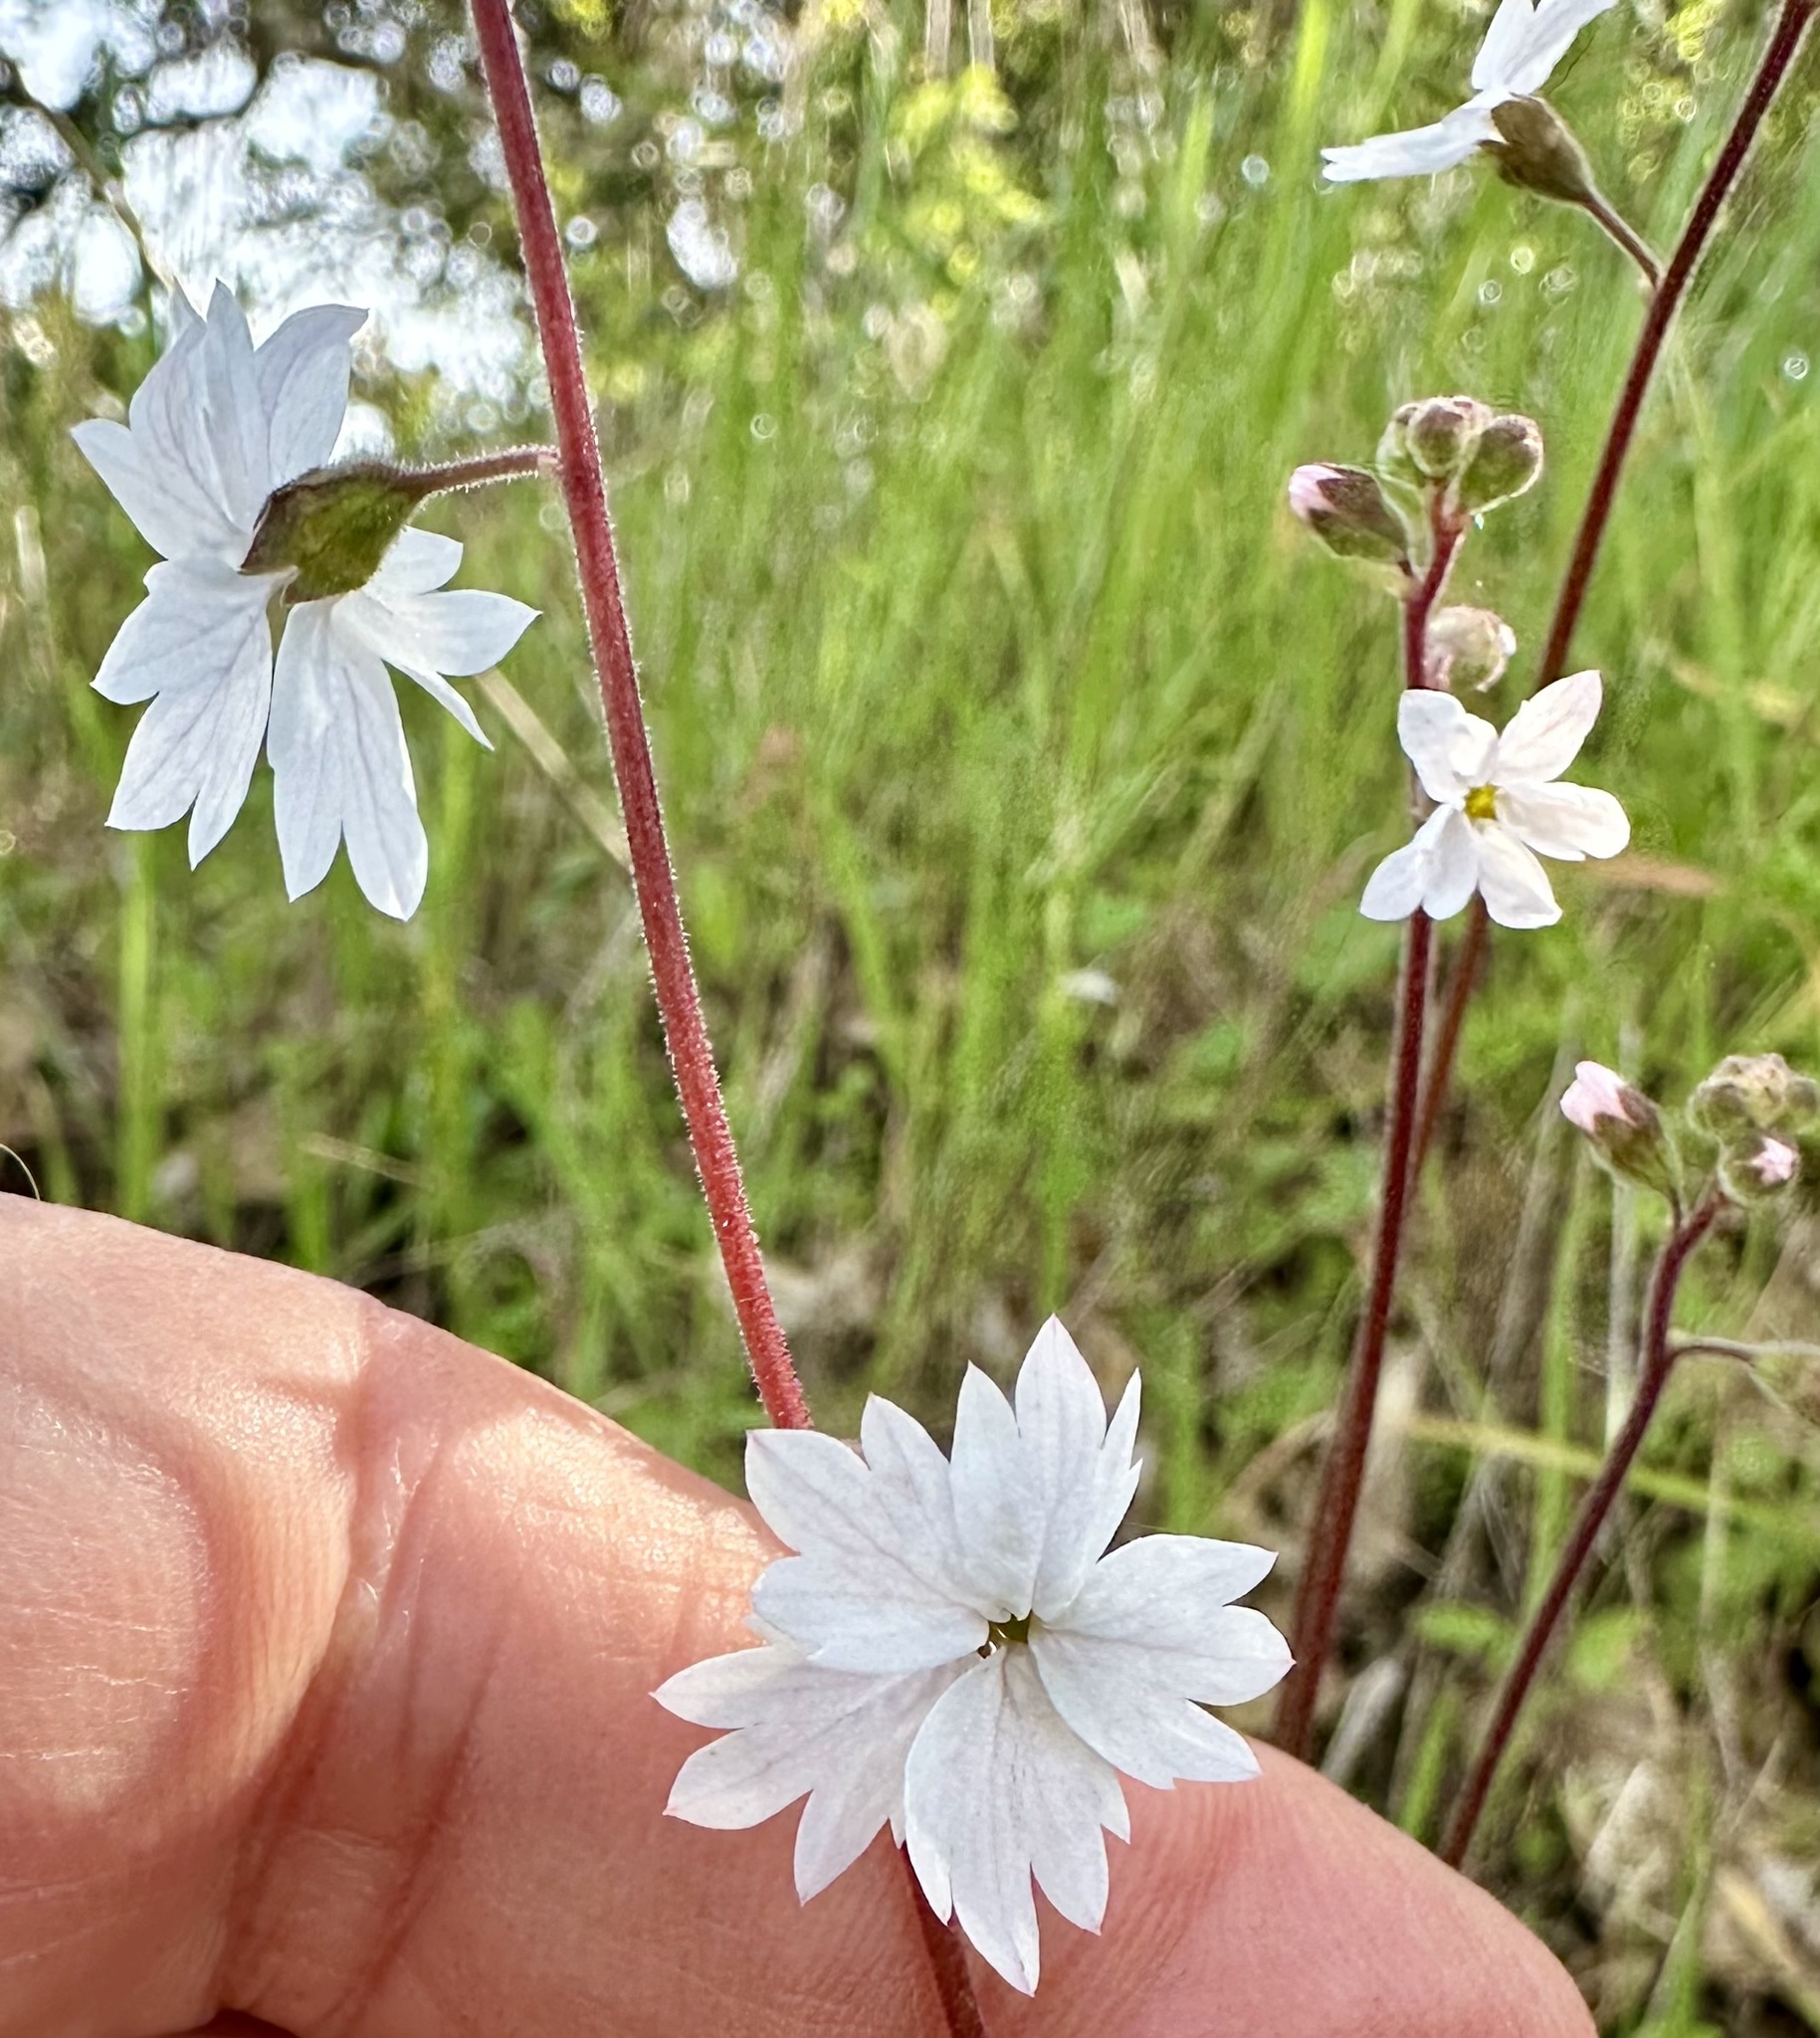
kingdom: Plantae
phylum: Tracheophyta
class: Magnoliopsida
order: Saxifragales
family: Saxifragaceae
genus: Lithophragma
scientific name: Lithophragma affine
